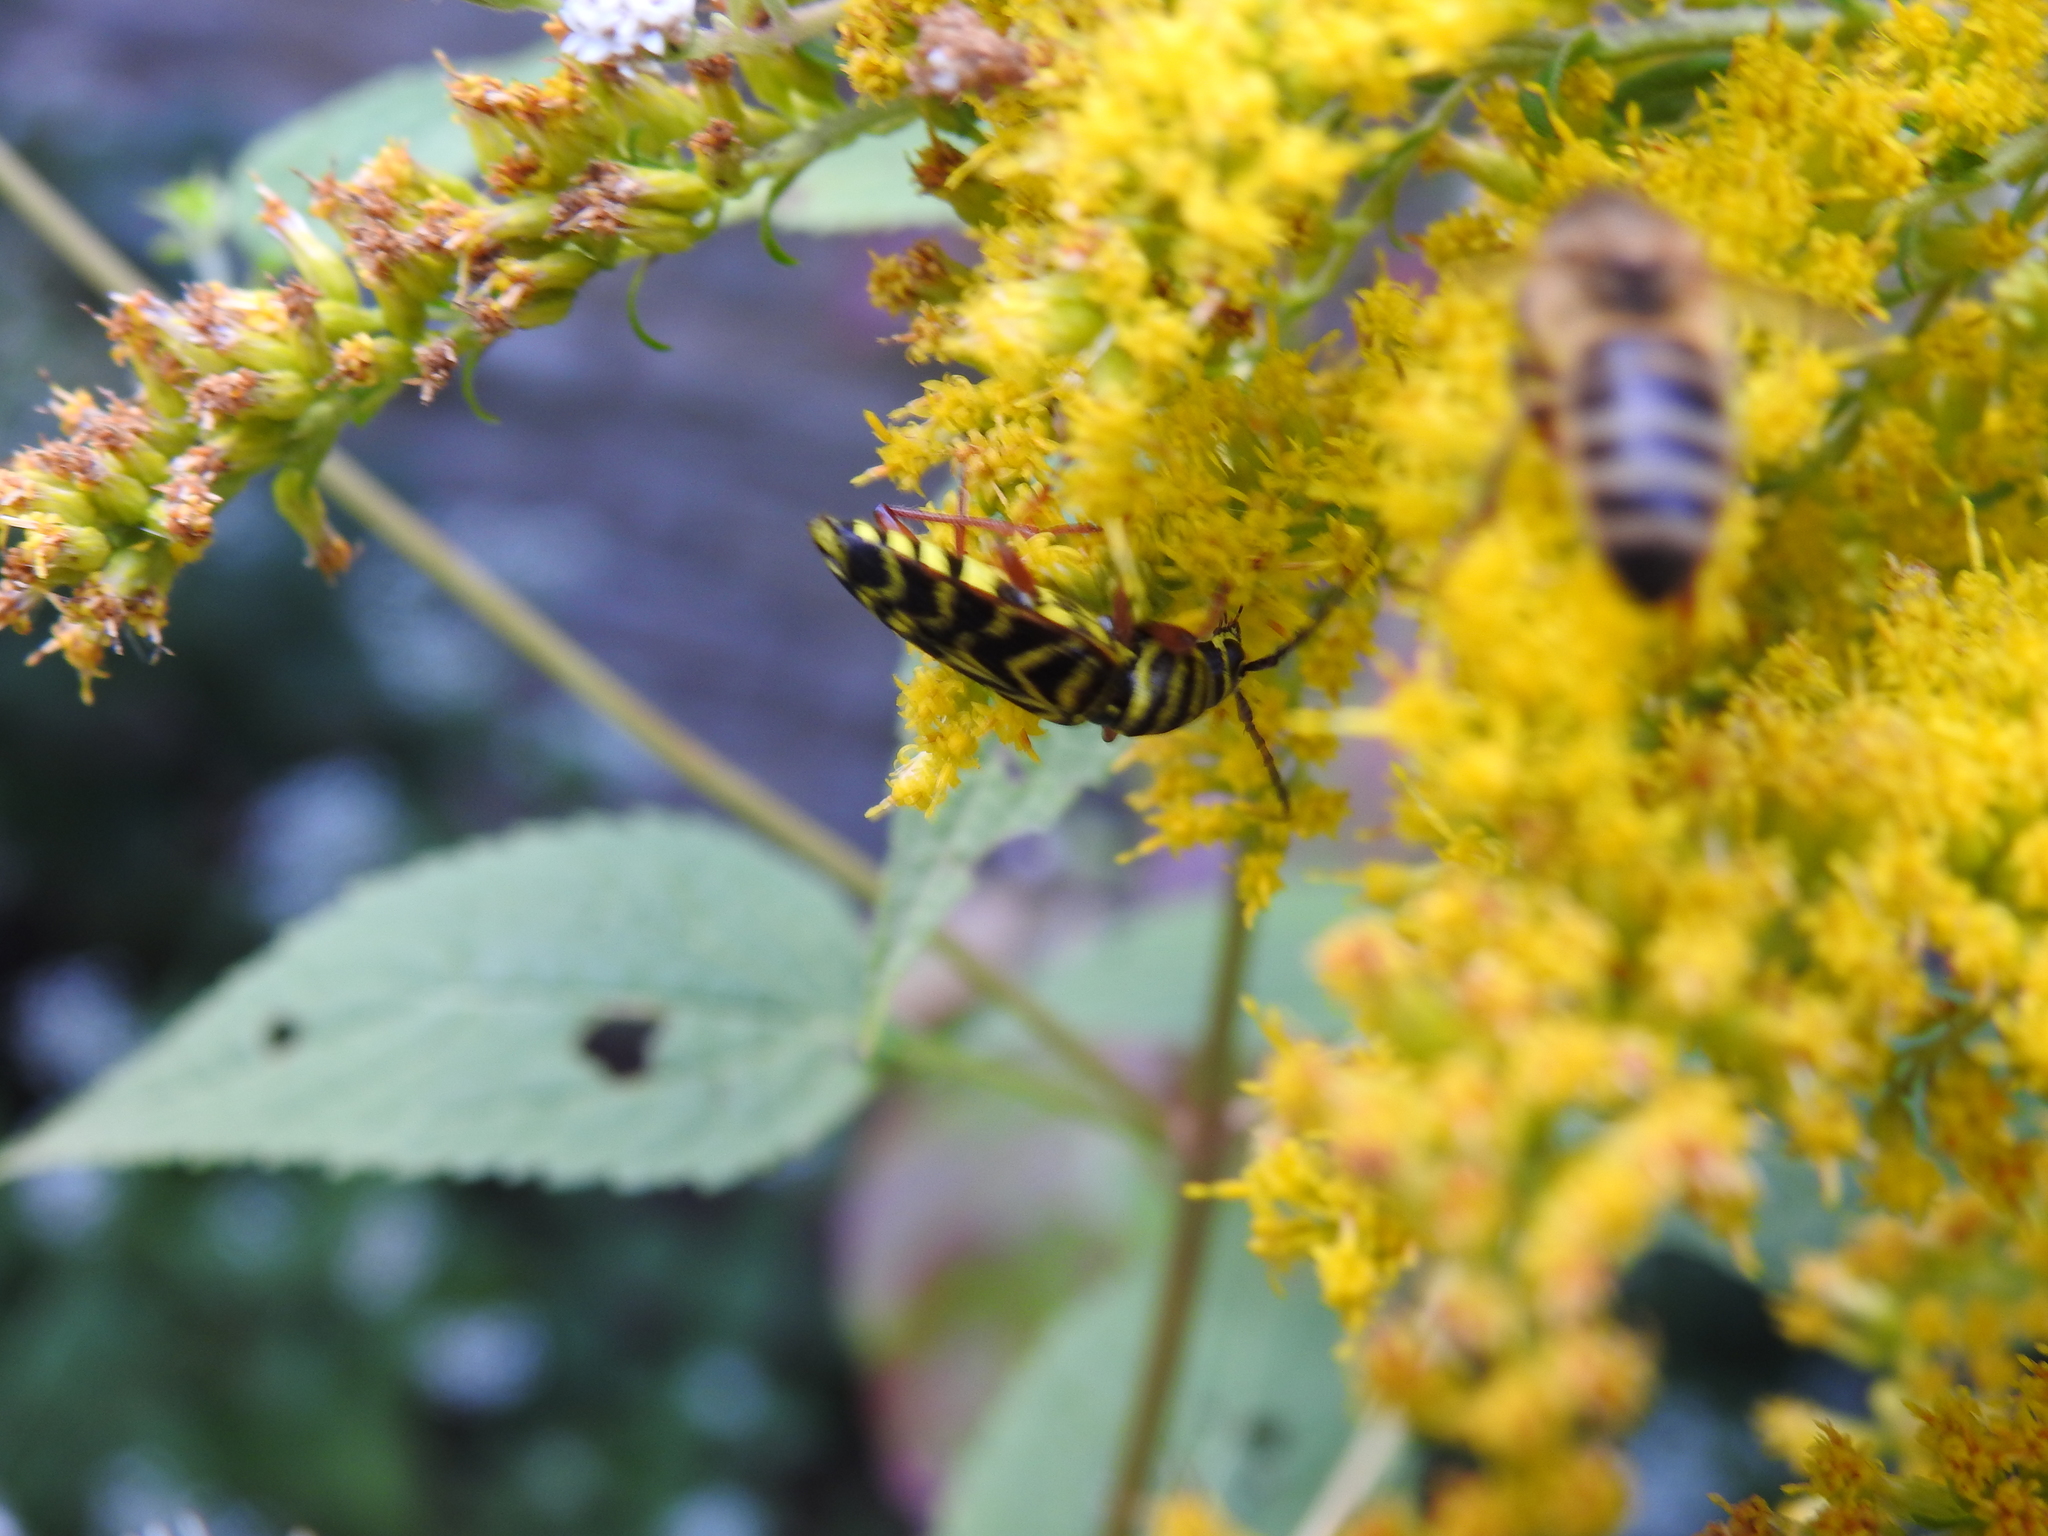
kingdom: Animalia
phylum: Arthropoda
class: Insecta
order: Coleoptera
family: Cerambycidae
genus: Megacyllene
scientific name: Megacyllene robiniae
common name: Locust borer
